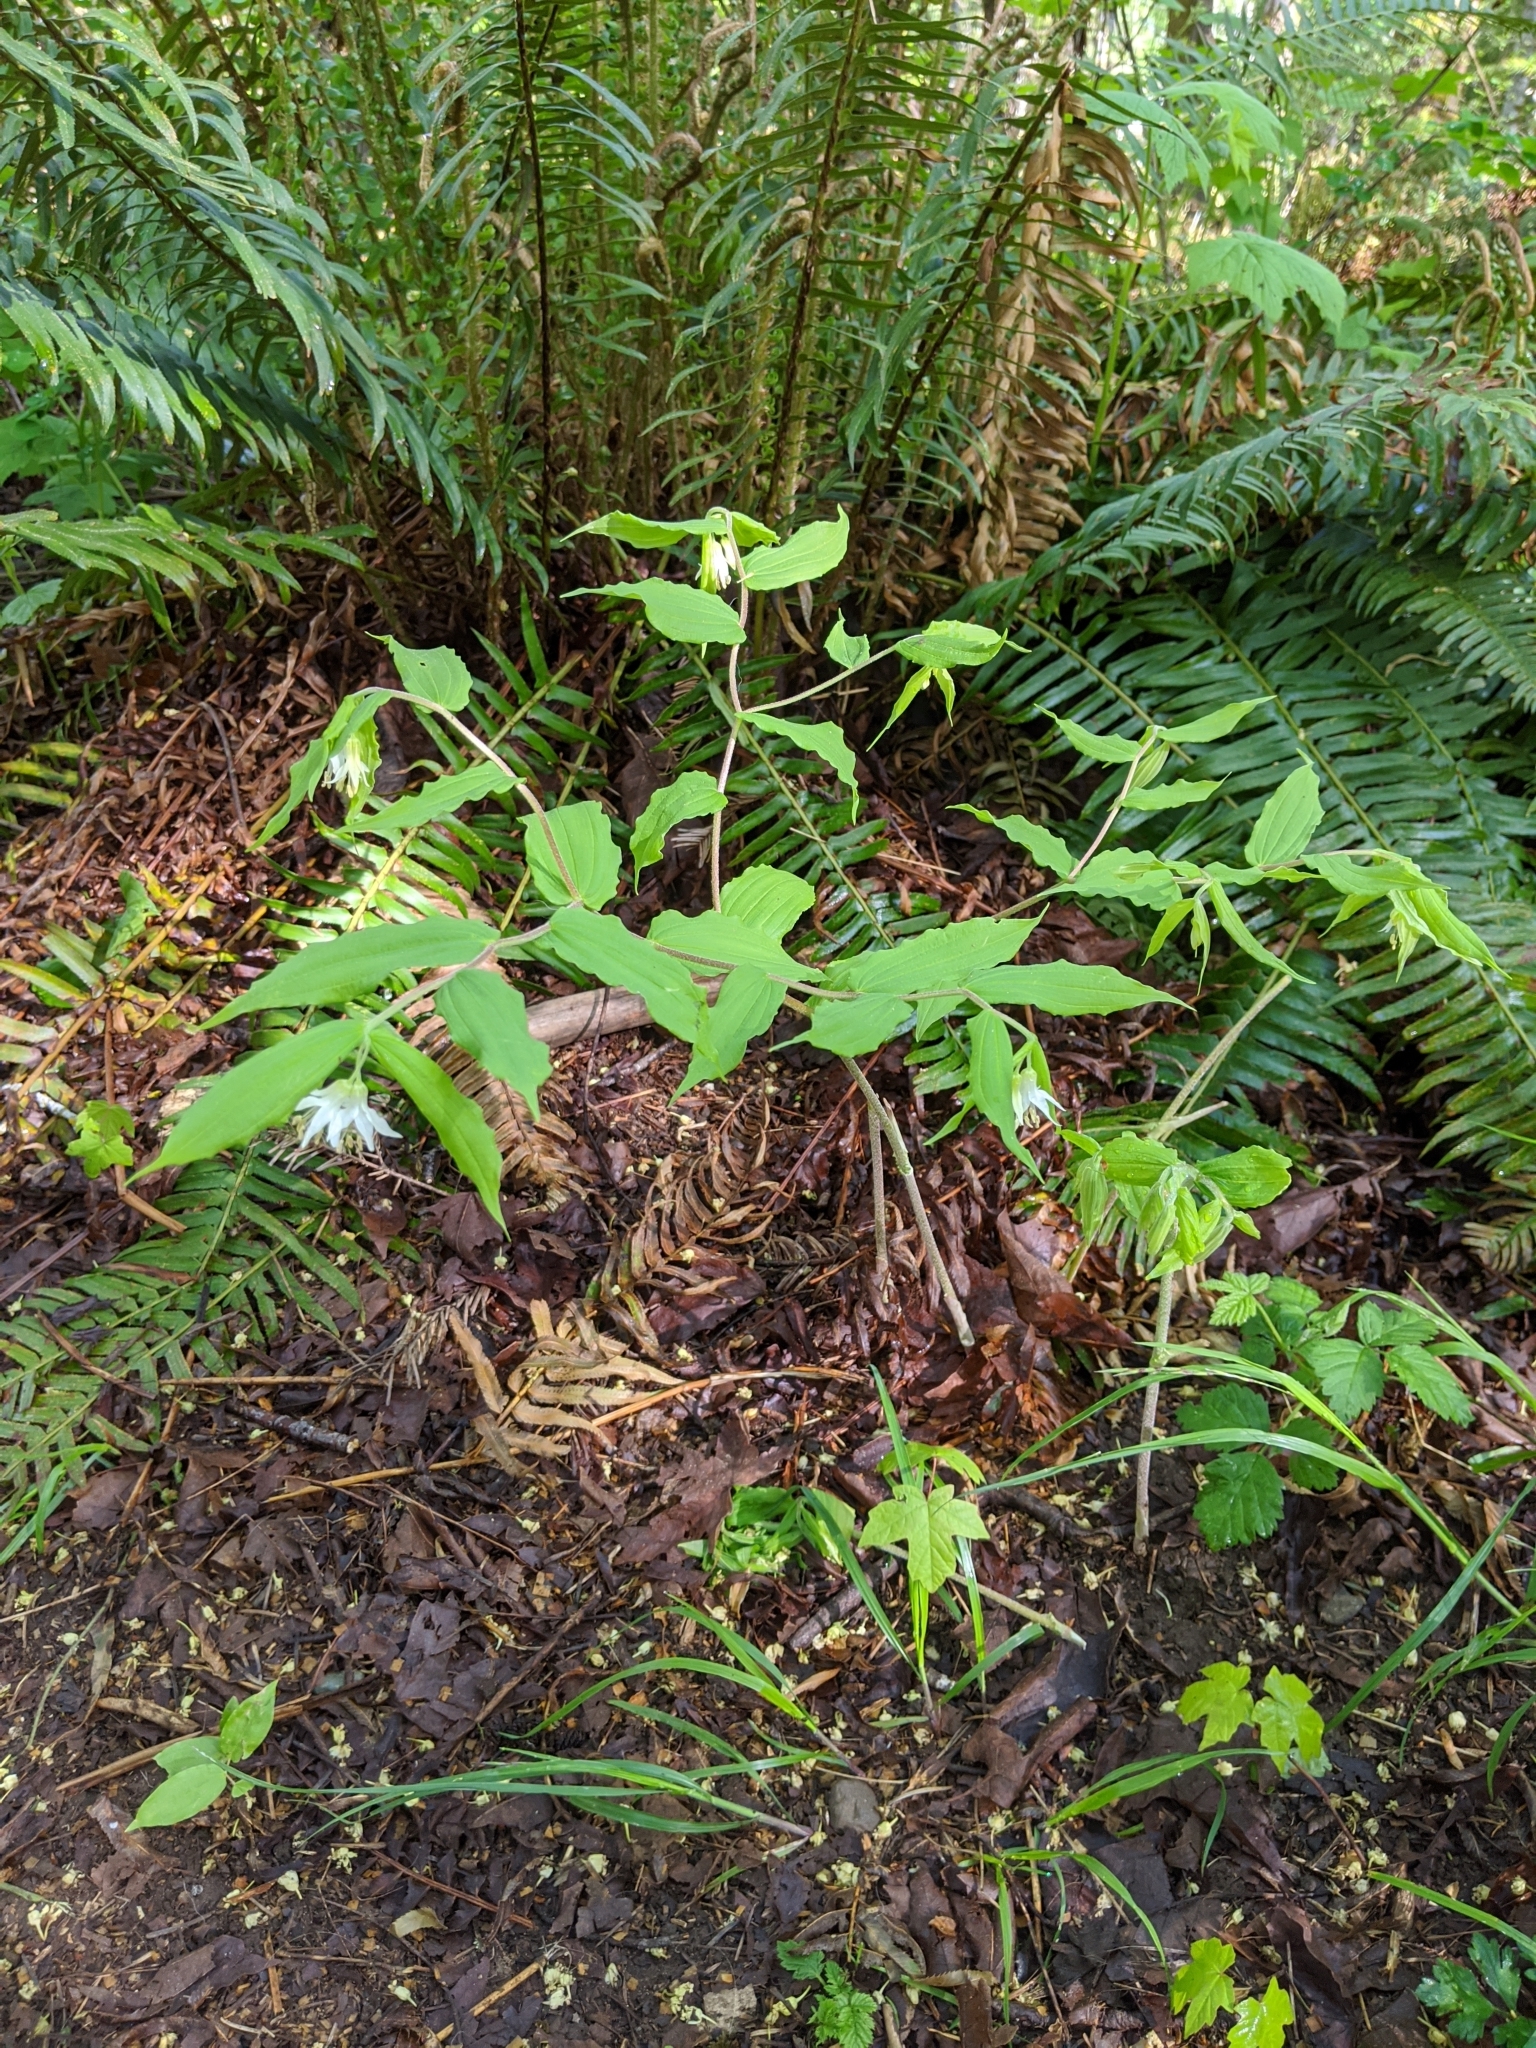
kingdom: Plantae
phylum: Tracheophyta
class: Liliopsida
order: Liliales
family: Liliaceae
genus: Prosartes
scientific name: Prosartes hookeri
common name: Fairy-bells
